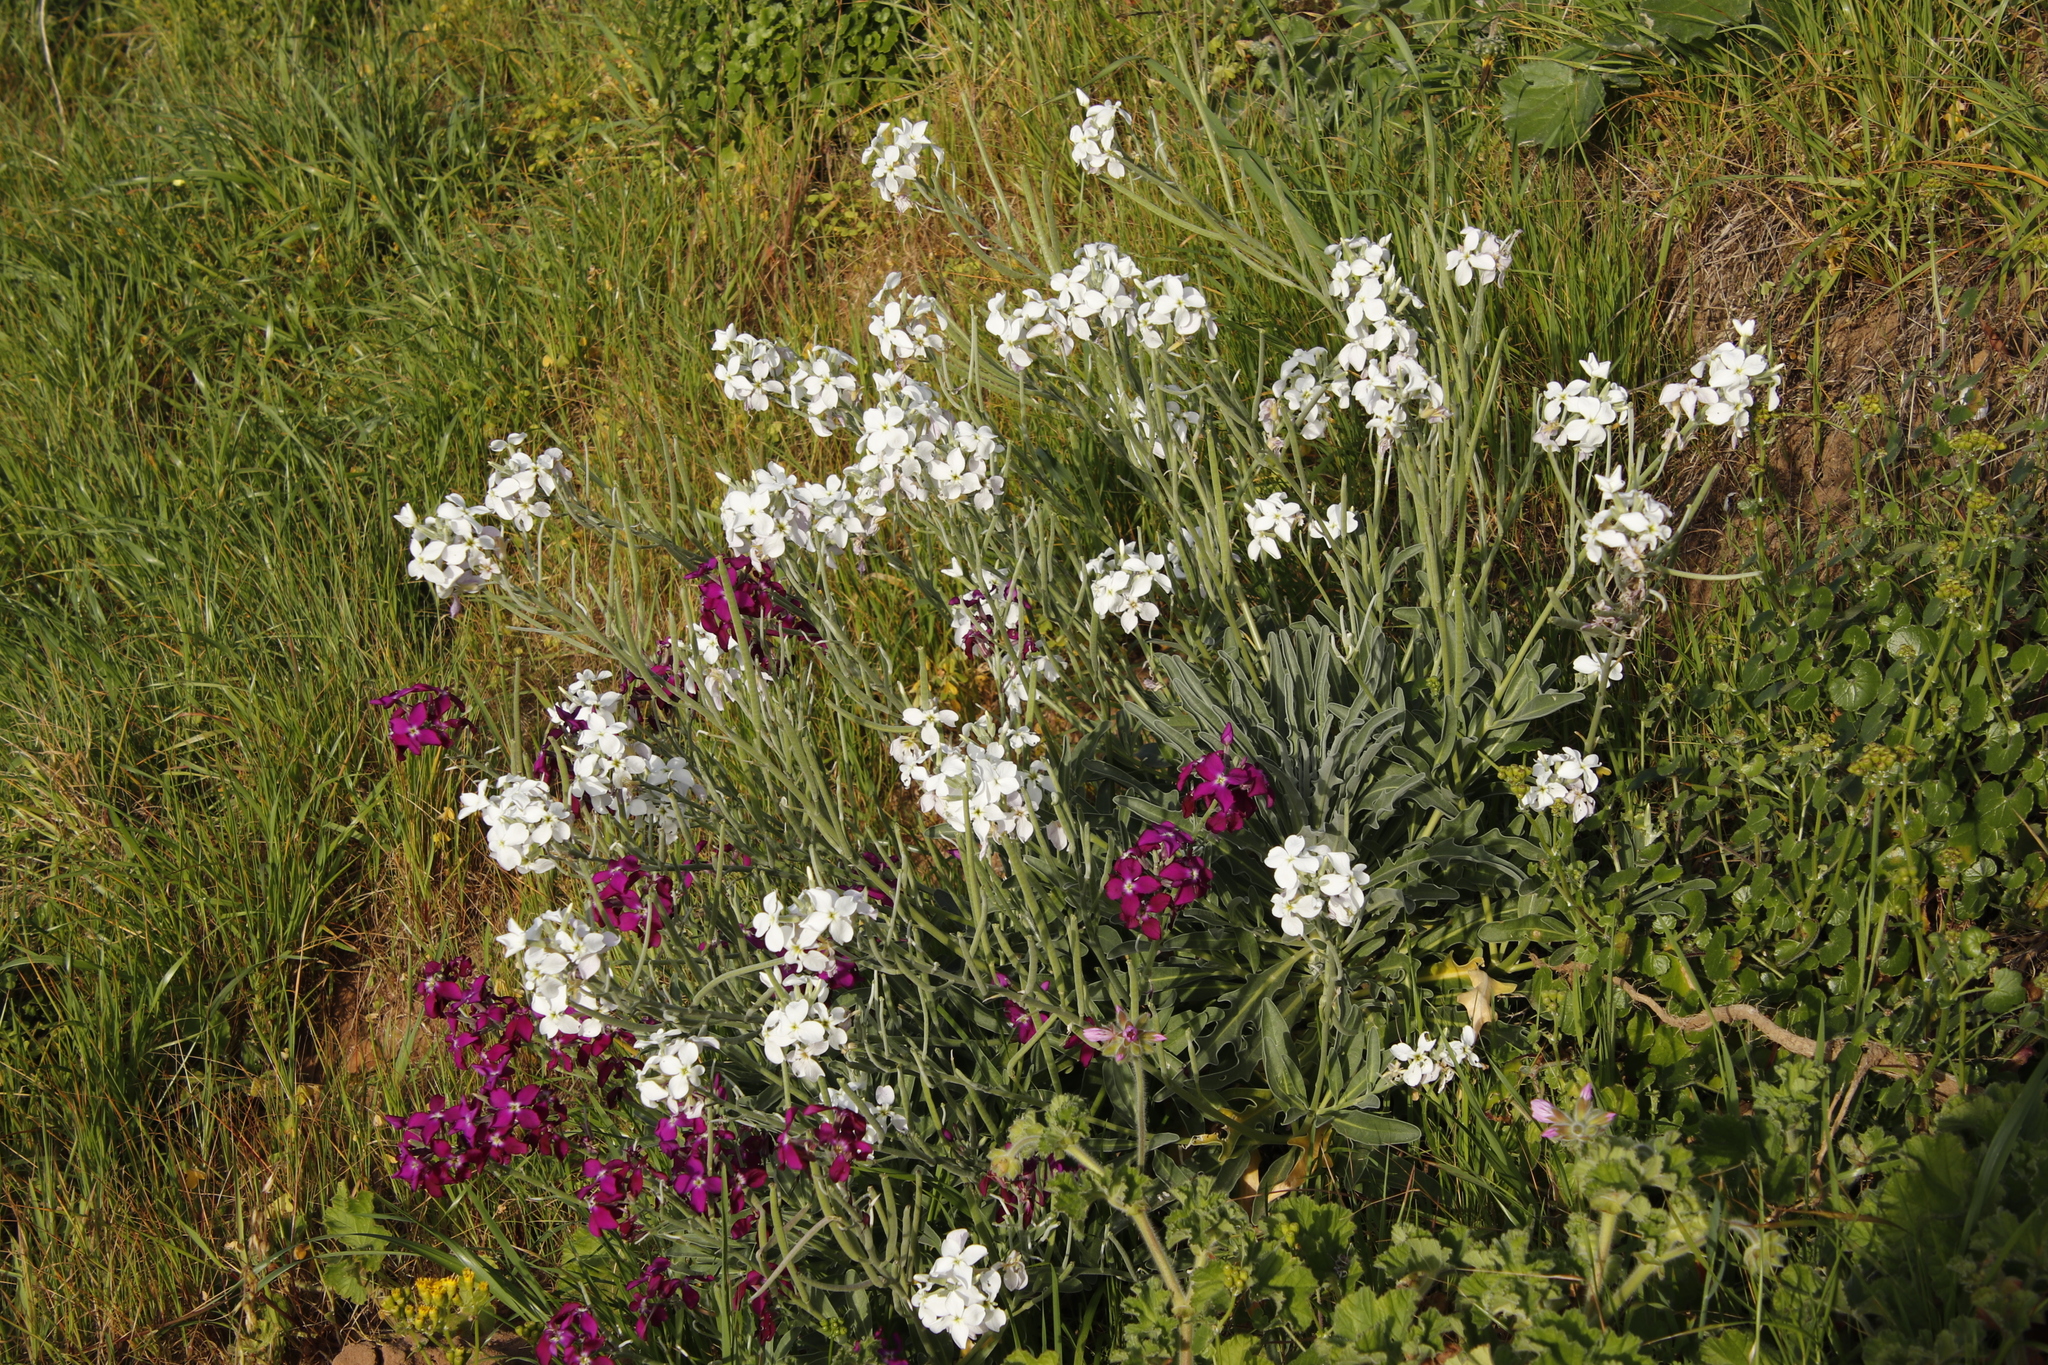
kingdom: Plantae
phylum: Tracheophyta
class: Magnoliopsida
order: Brassicales
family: Brassicaceae
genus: Matthiola
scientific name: Matthiola incana
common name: Hoary stock
